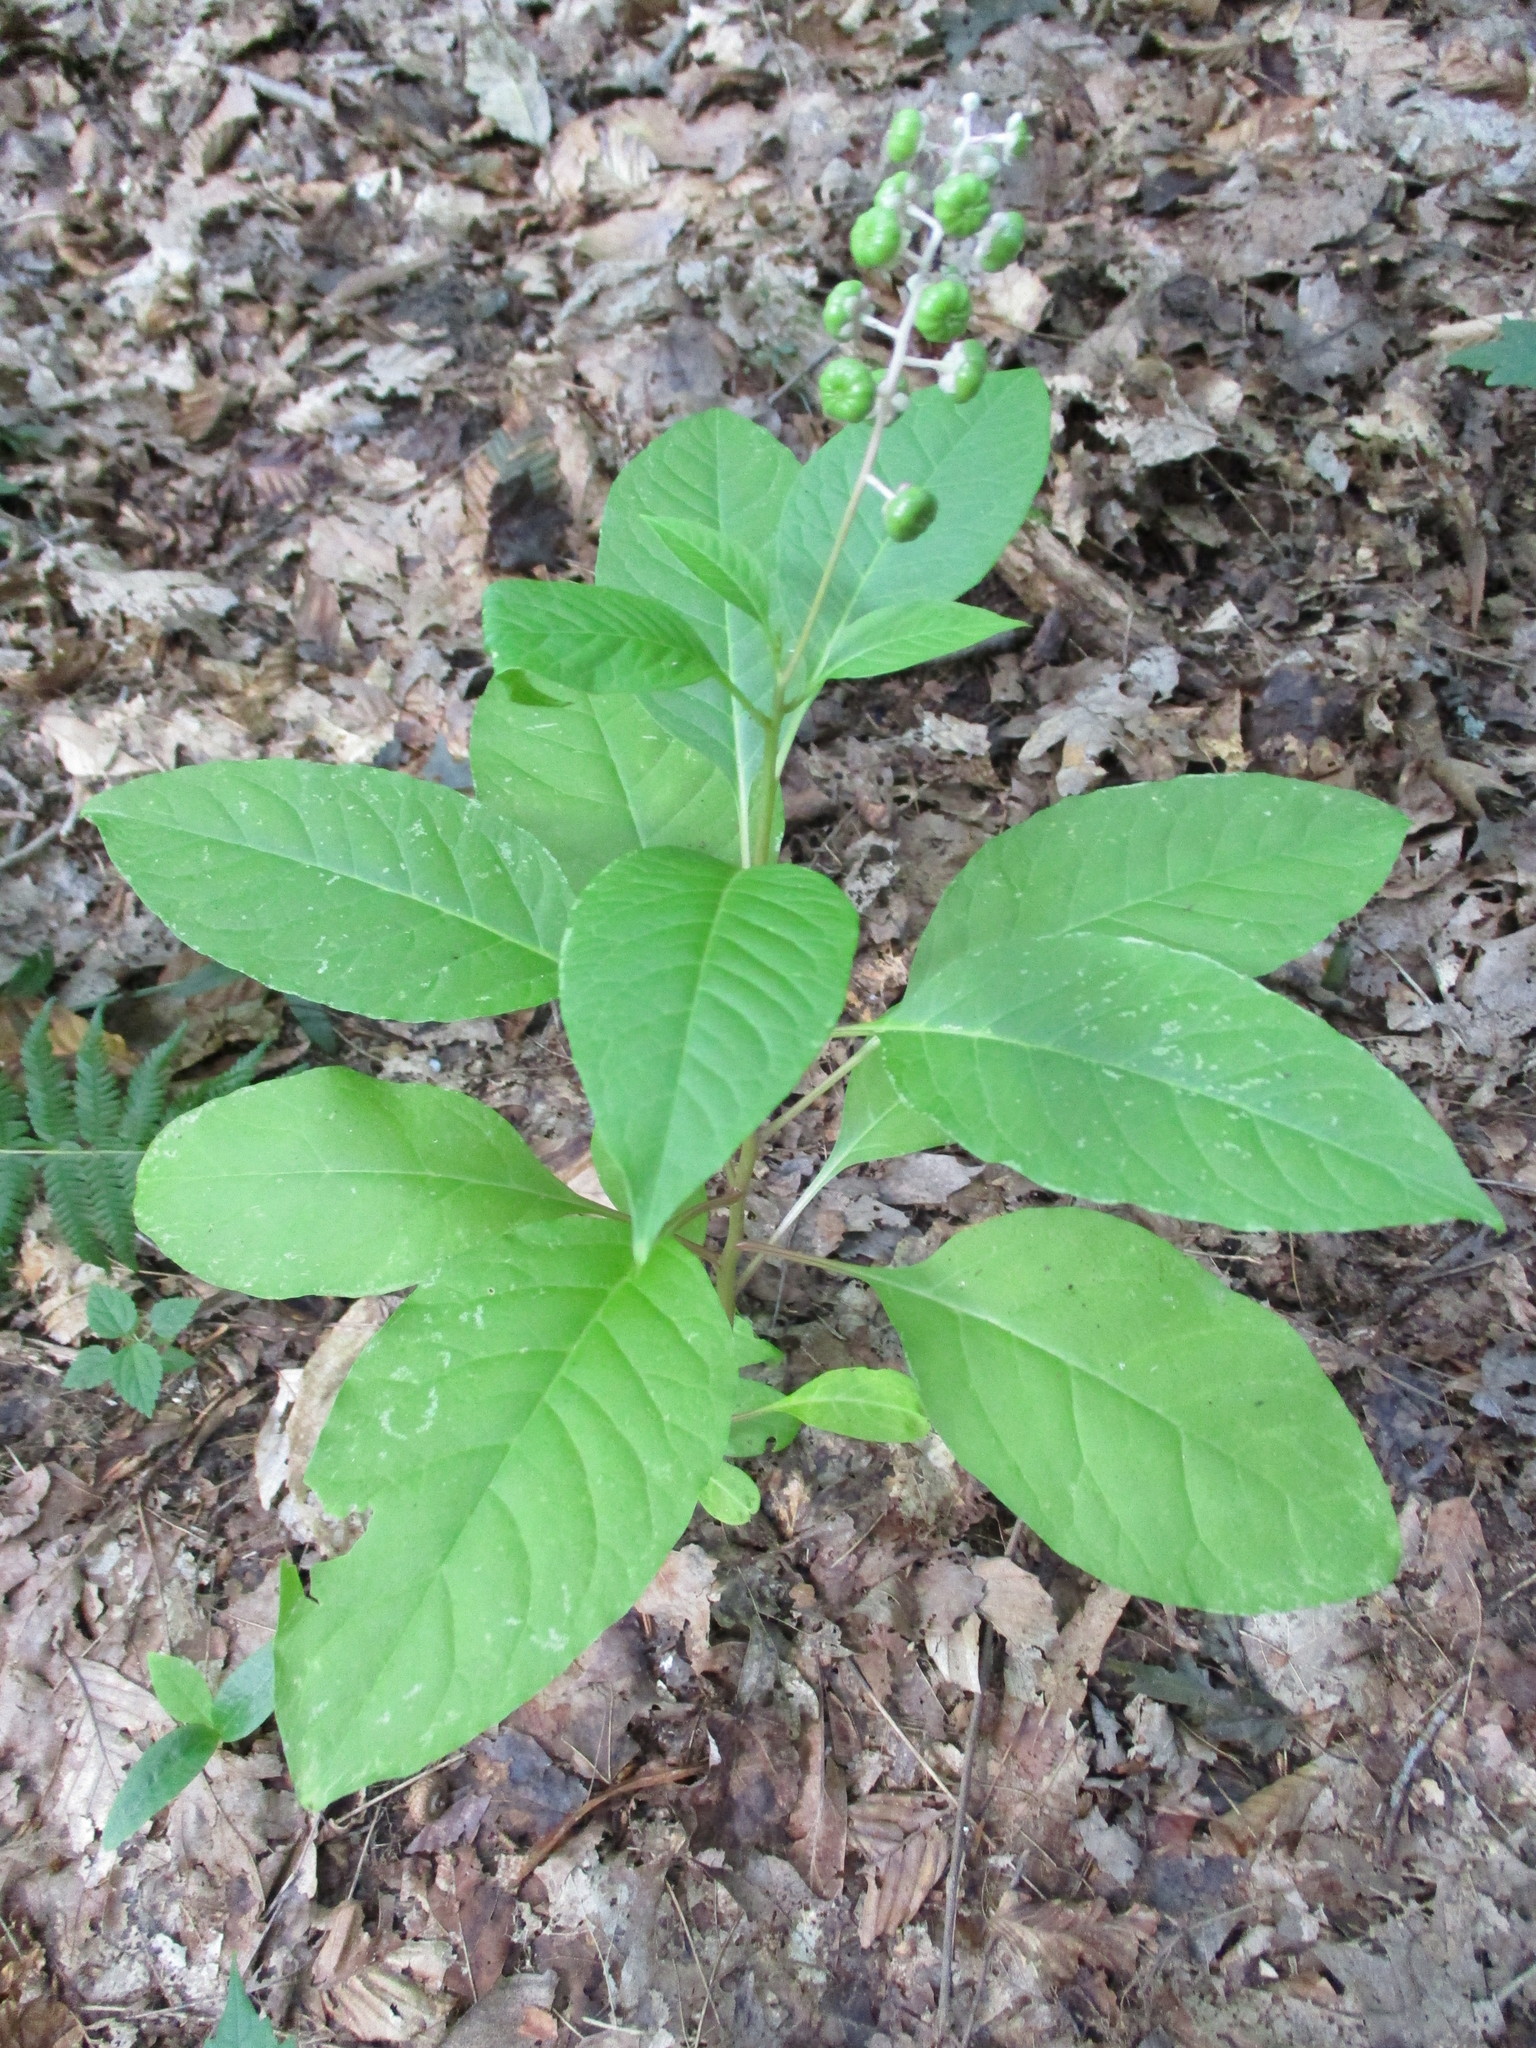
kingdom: Plantae
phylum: Tracheophyta
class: Magnoliopsida
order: Caryophyllales
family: Phytolaccaceae
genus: Phytolacca
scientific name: Phytolacca americana
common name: American pokeweed
